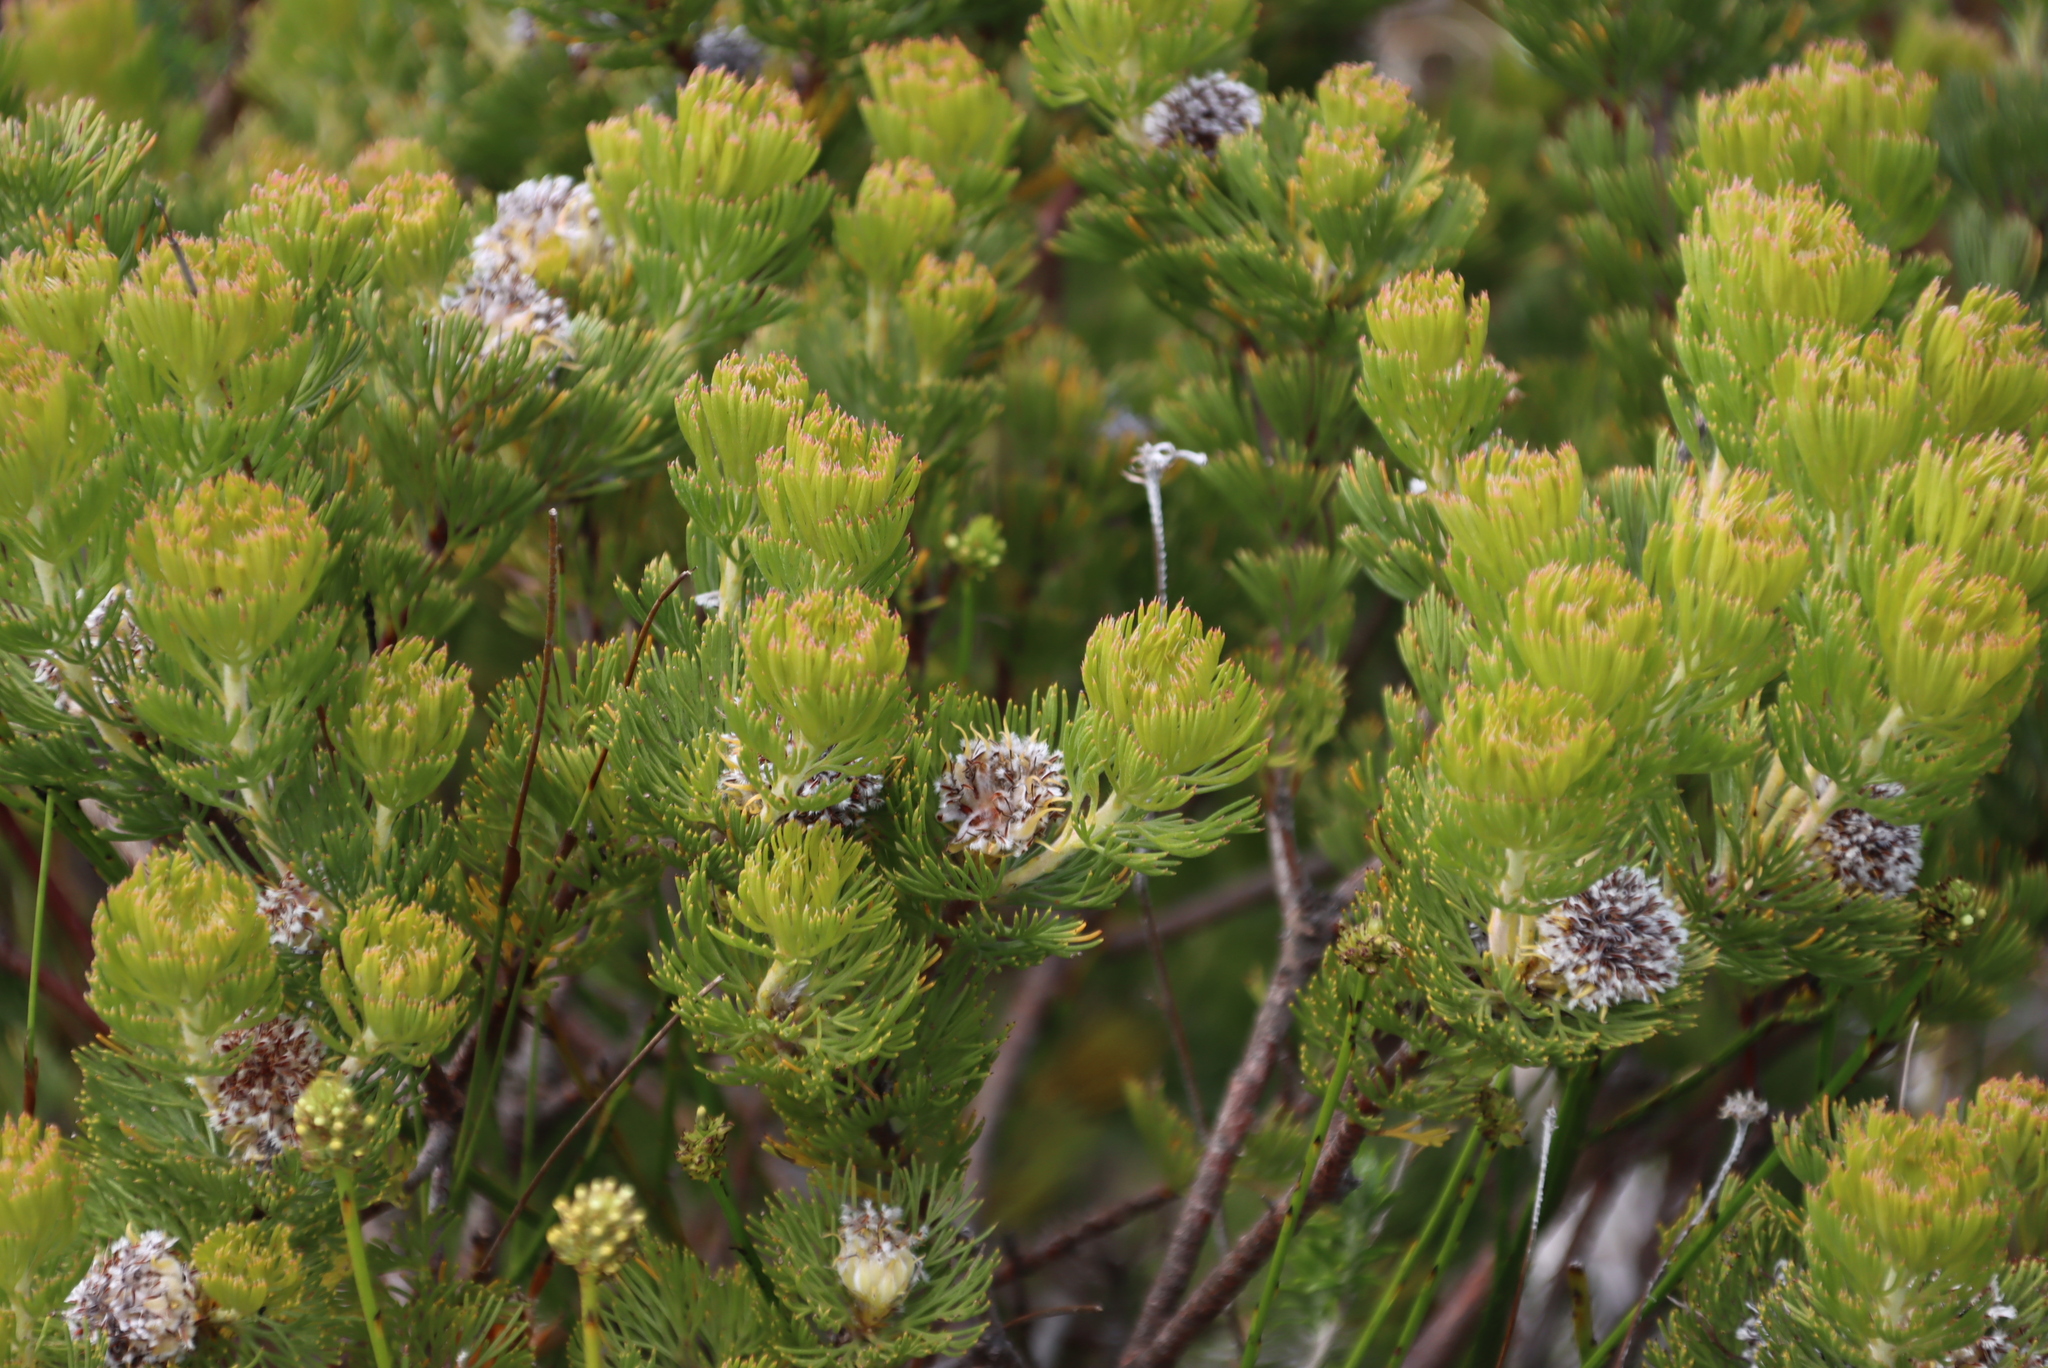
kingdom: Plantae
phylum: Tracheophyta
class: Magnoliopsida
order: Proteales
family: Proteaceae
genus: Serruria
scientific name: Serruria villosa
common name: Golden spiderhead
